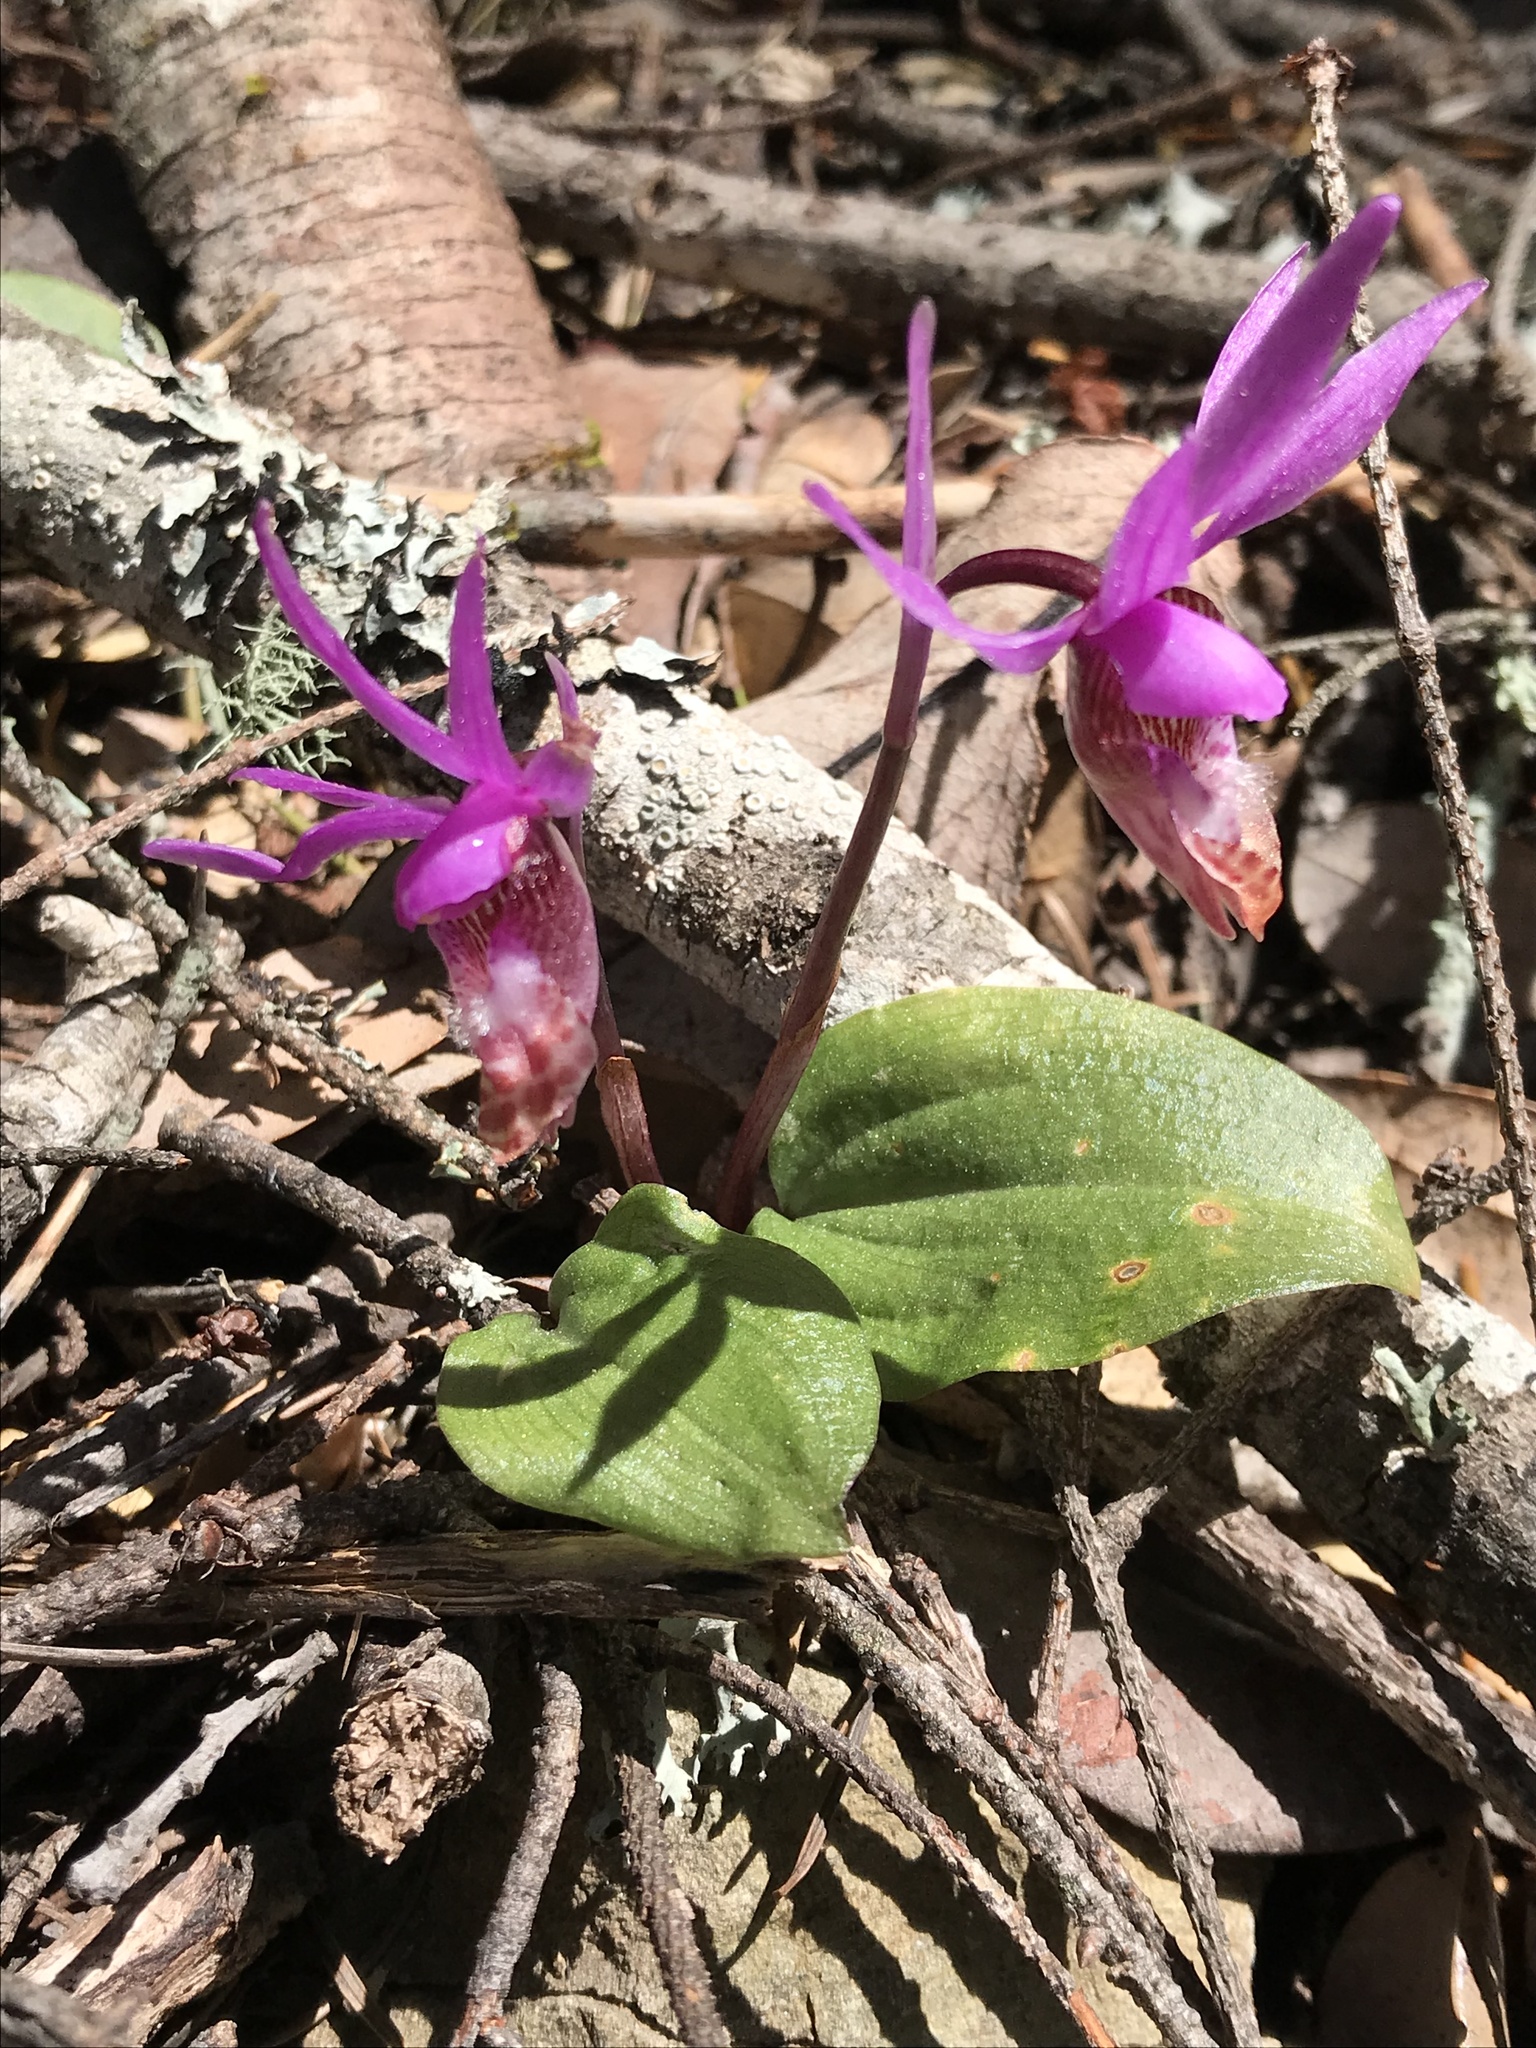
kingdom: Plantae
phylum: Tracheophyta
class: Liliopsida
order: Asparagales
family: Orchidaceae
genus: Calypso
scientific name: Calypso bulbosa
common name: Calypso
